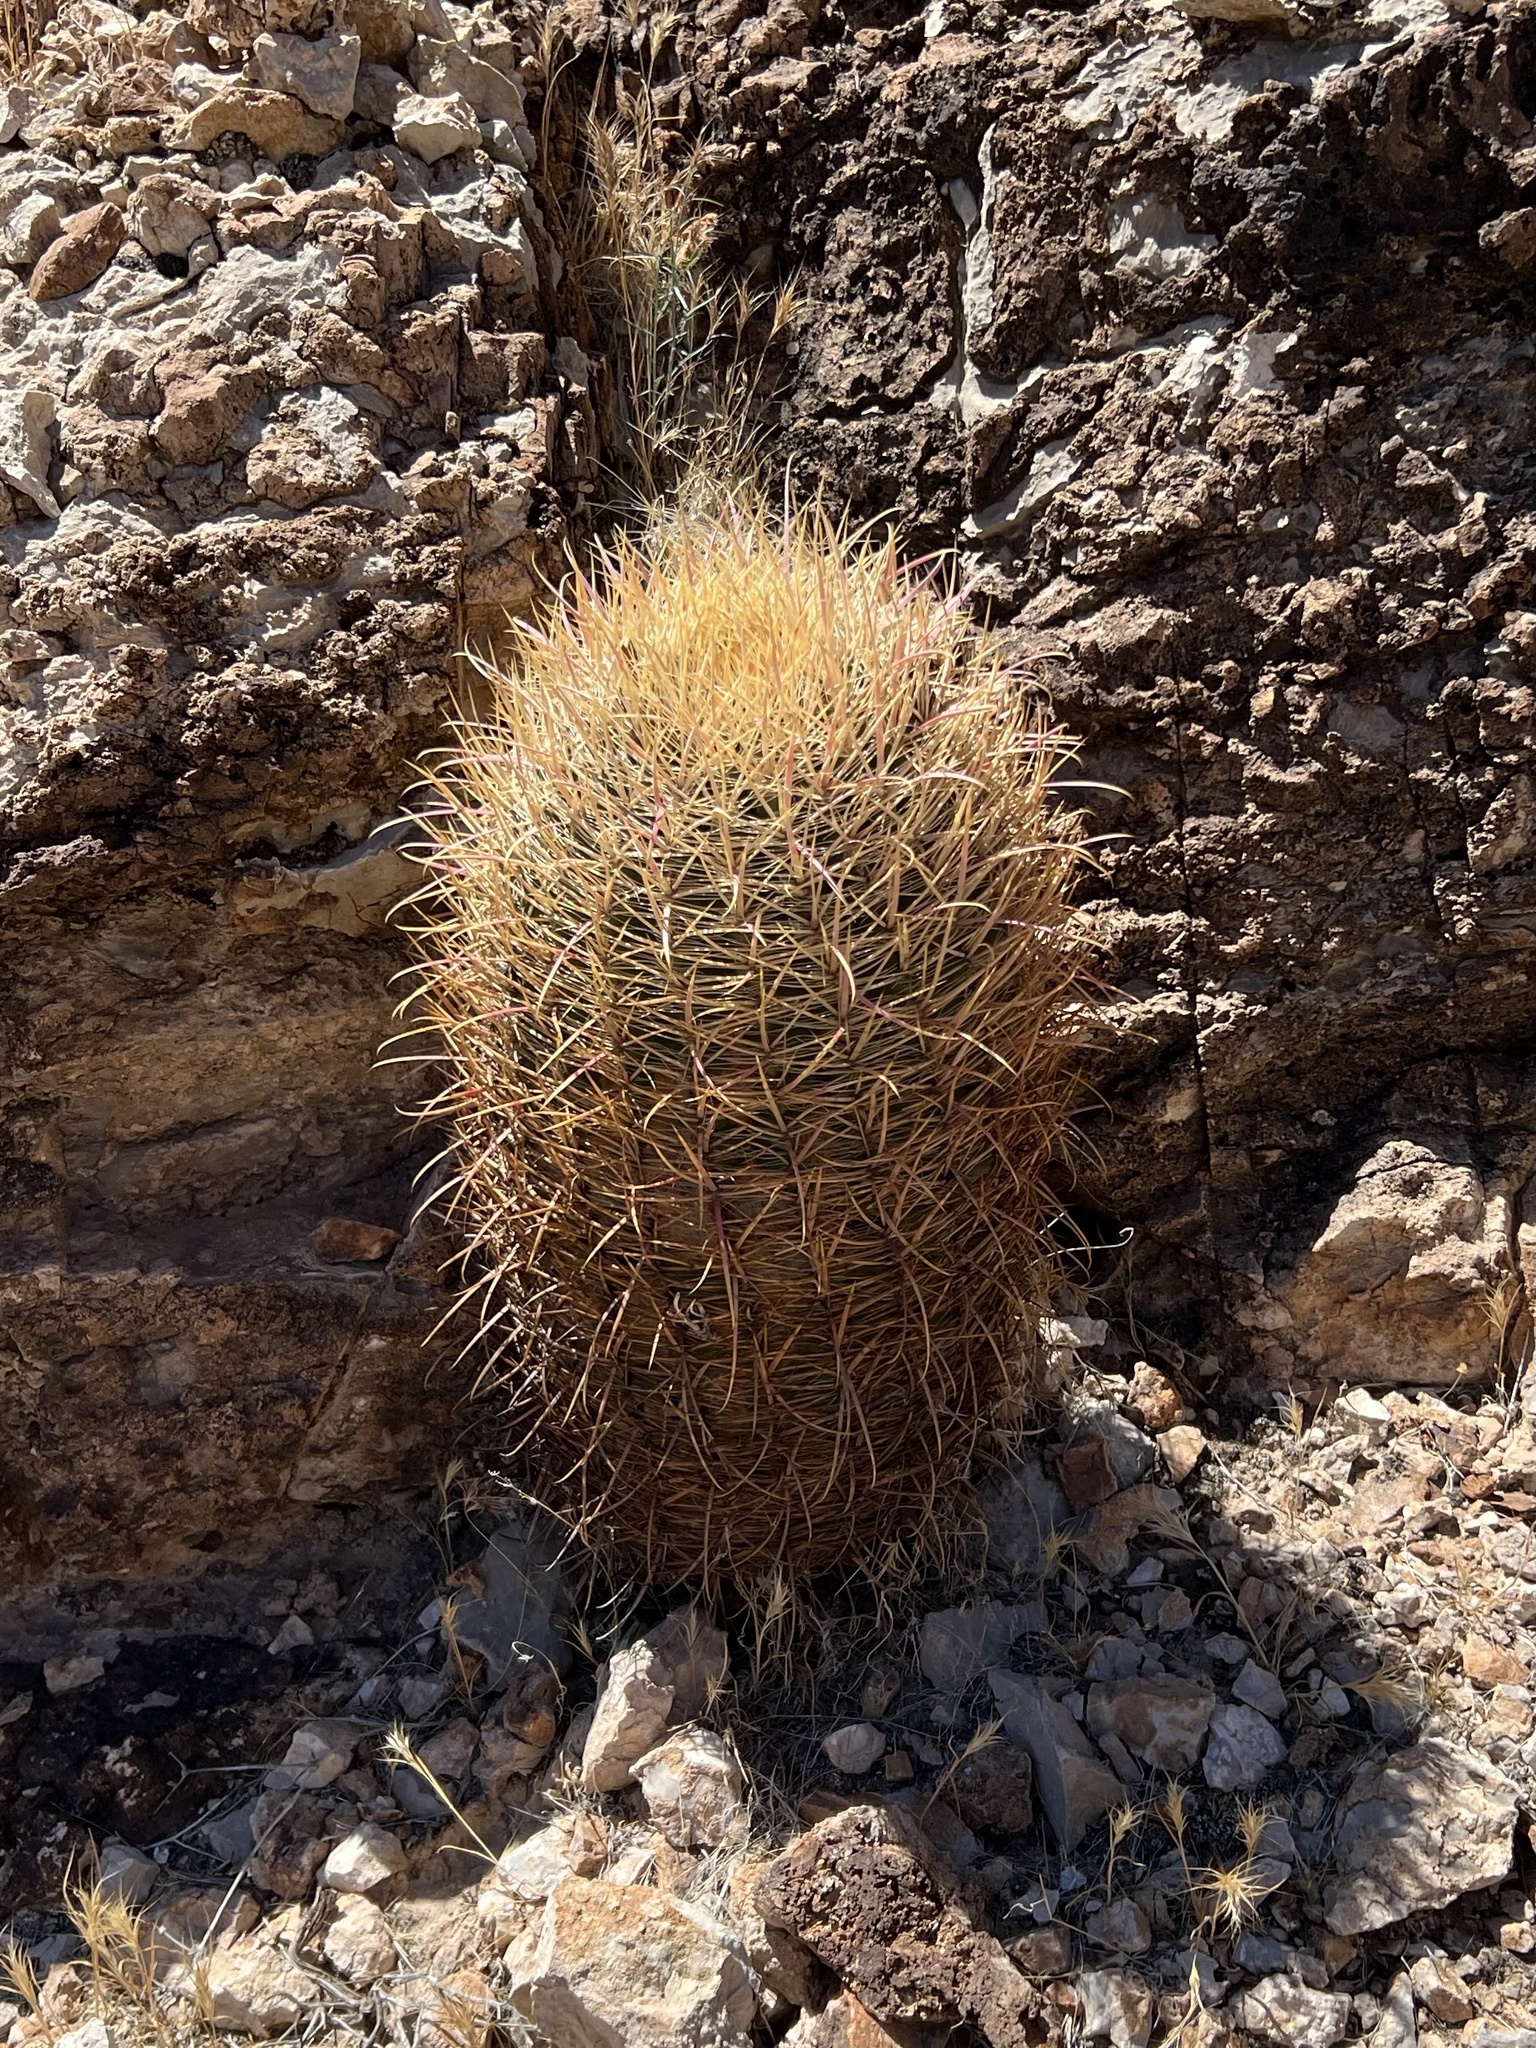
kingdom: Plantae
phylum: Tracheophyta
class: Magnoliopsida
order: Caryophyllales
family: Cactaceae
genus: Ferocactus
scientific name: Ferocactus cylindraceus
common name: California barrel cactus
